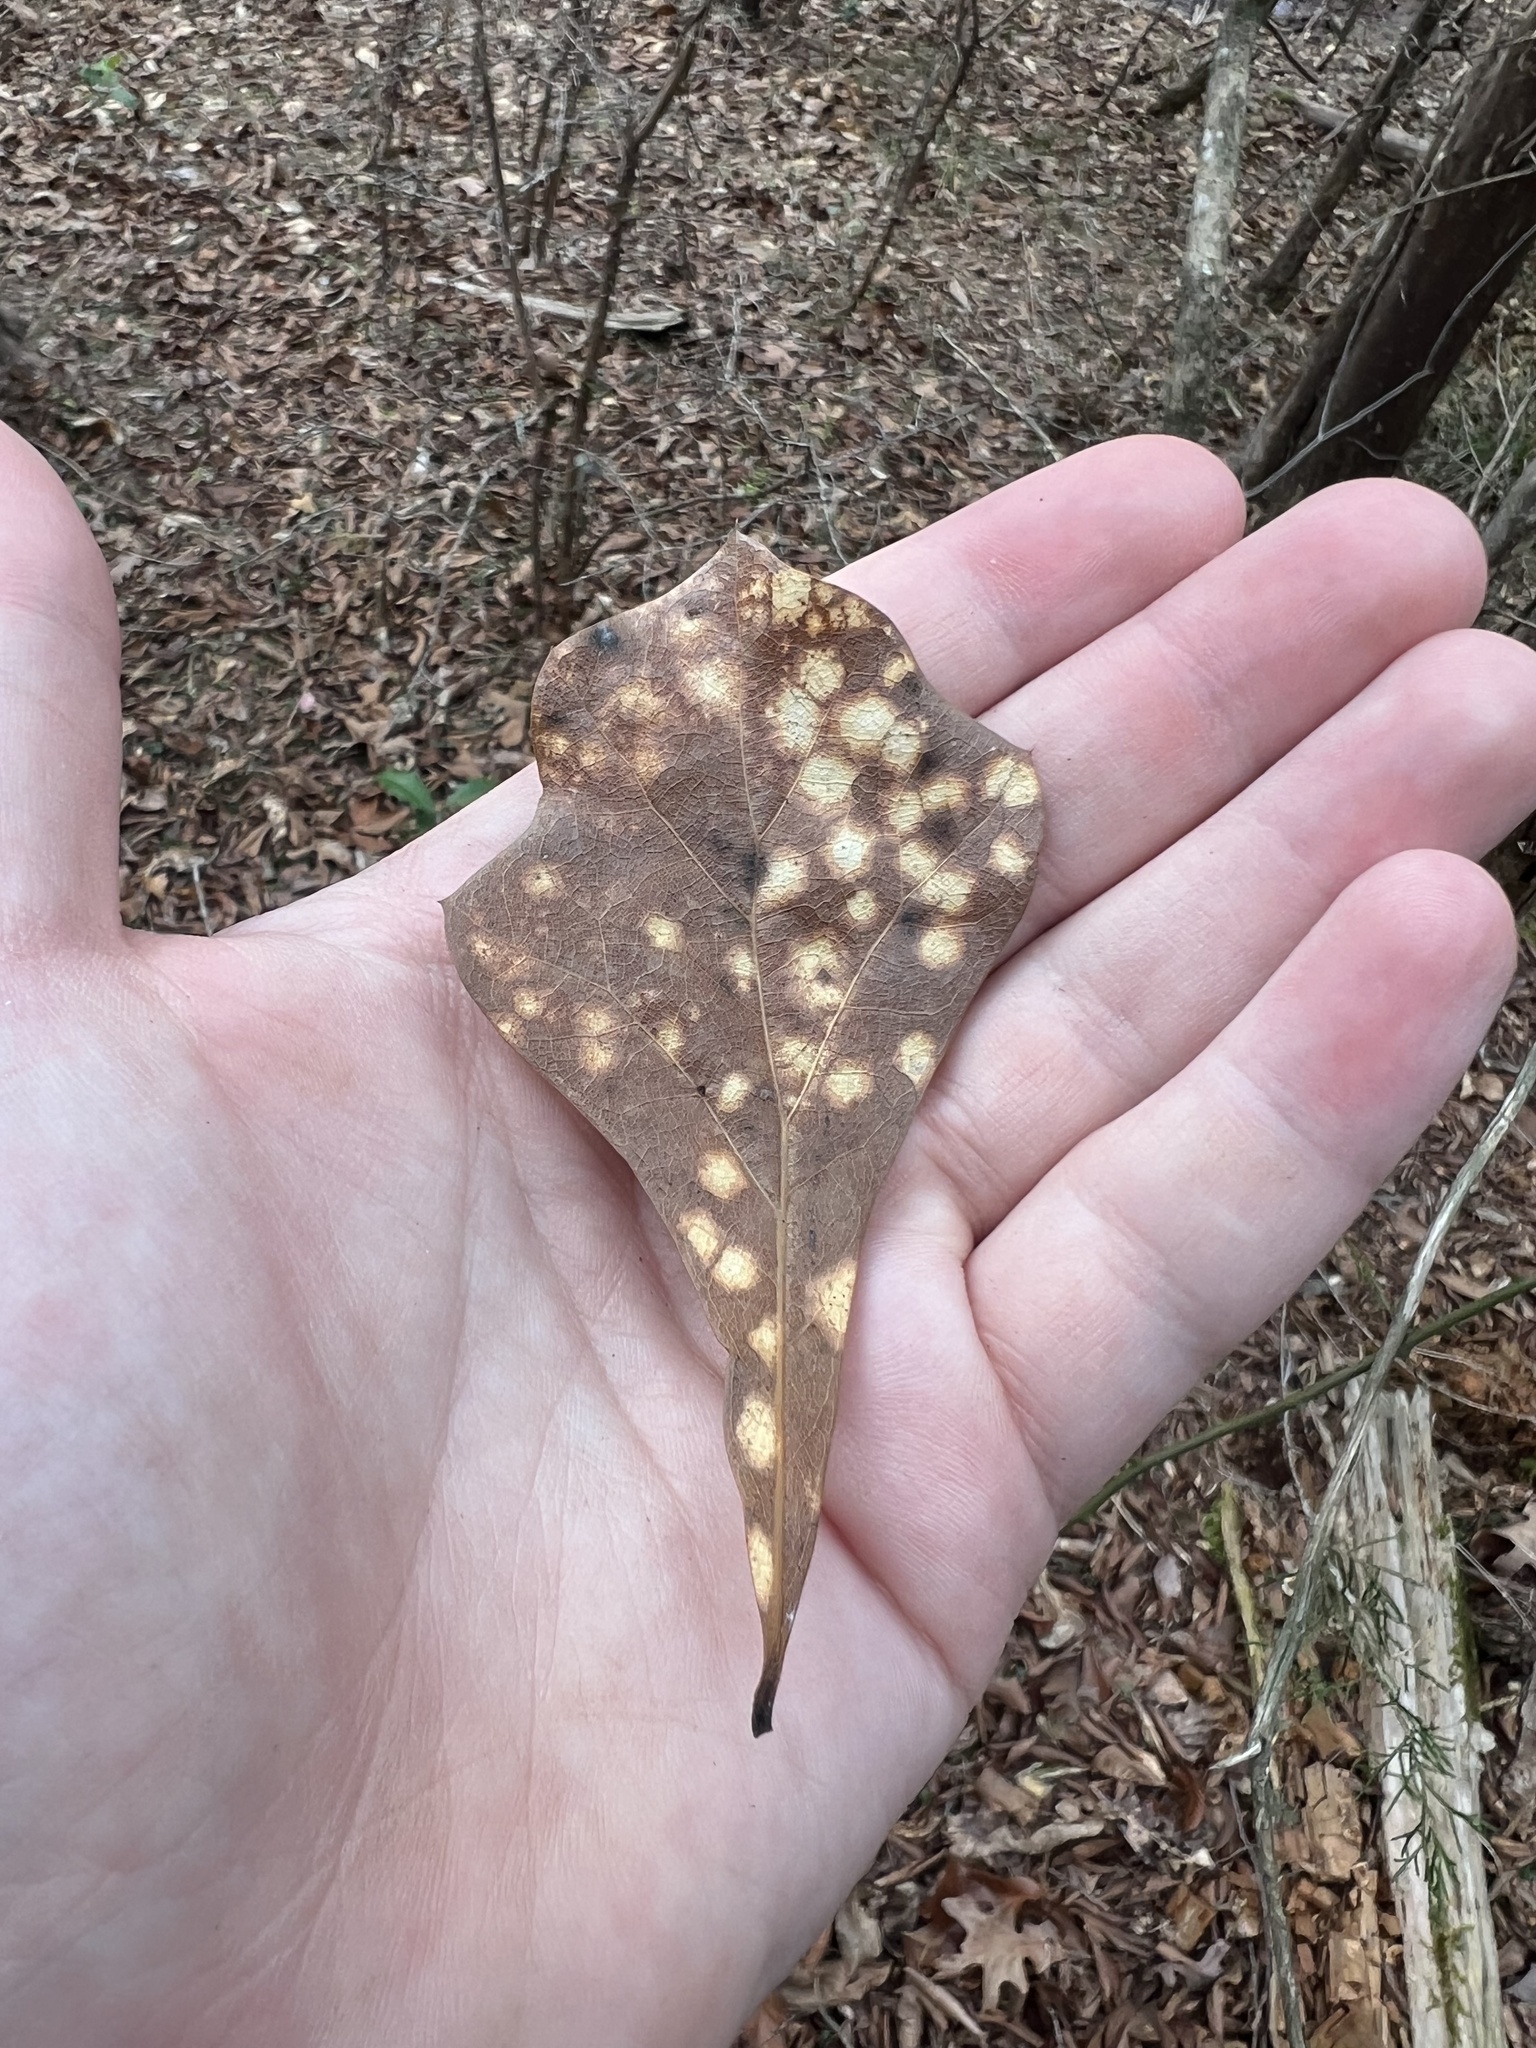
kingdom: Plantae
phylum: Tracheophyta
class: Magnoliopsida
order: Fagales
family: Fagaceae
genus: Quercus
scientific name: Quercus nigra
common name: Water oak
